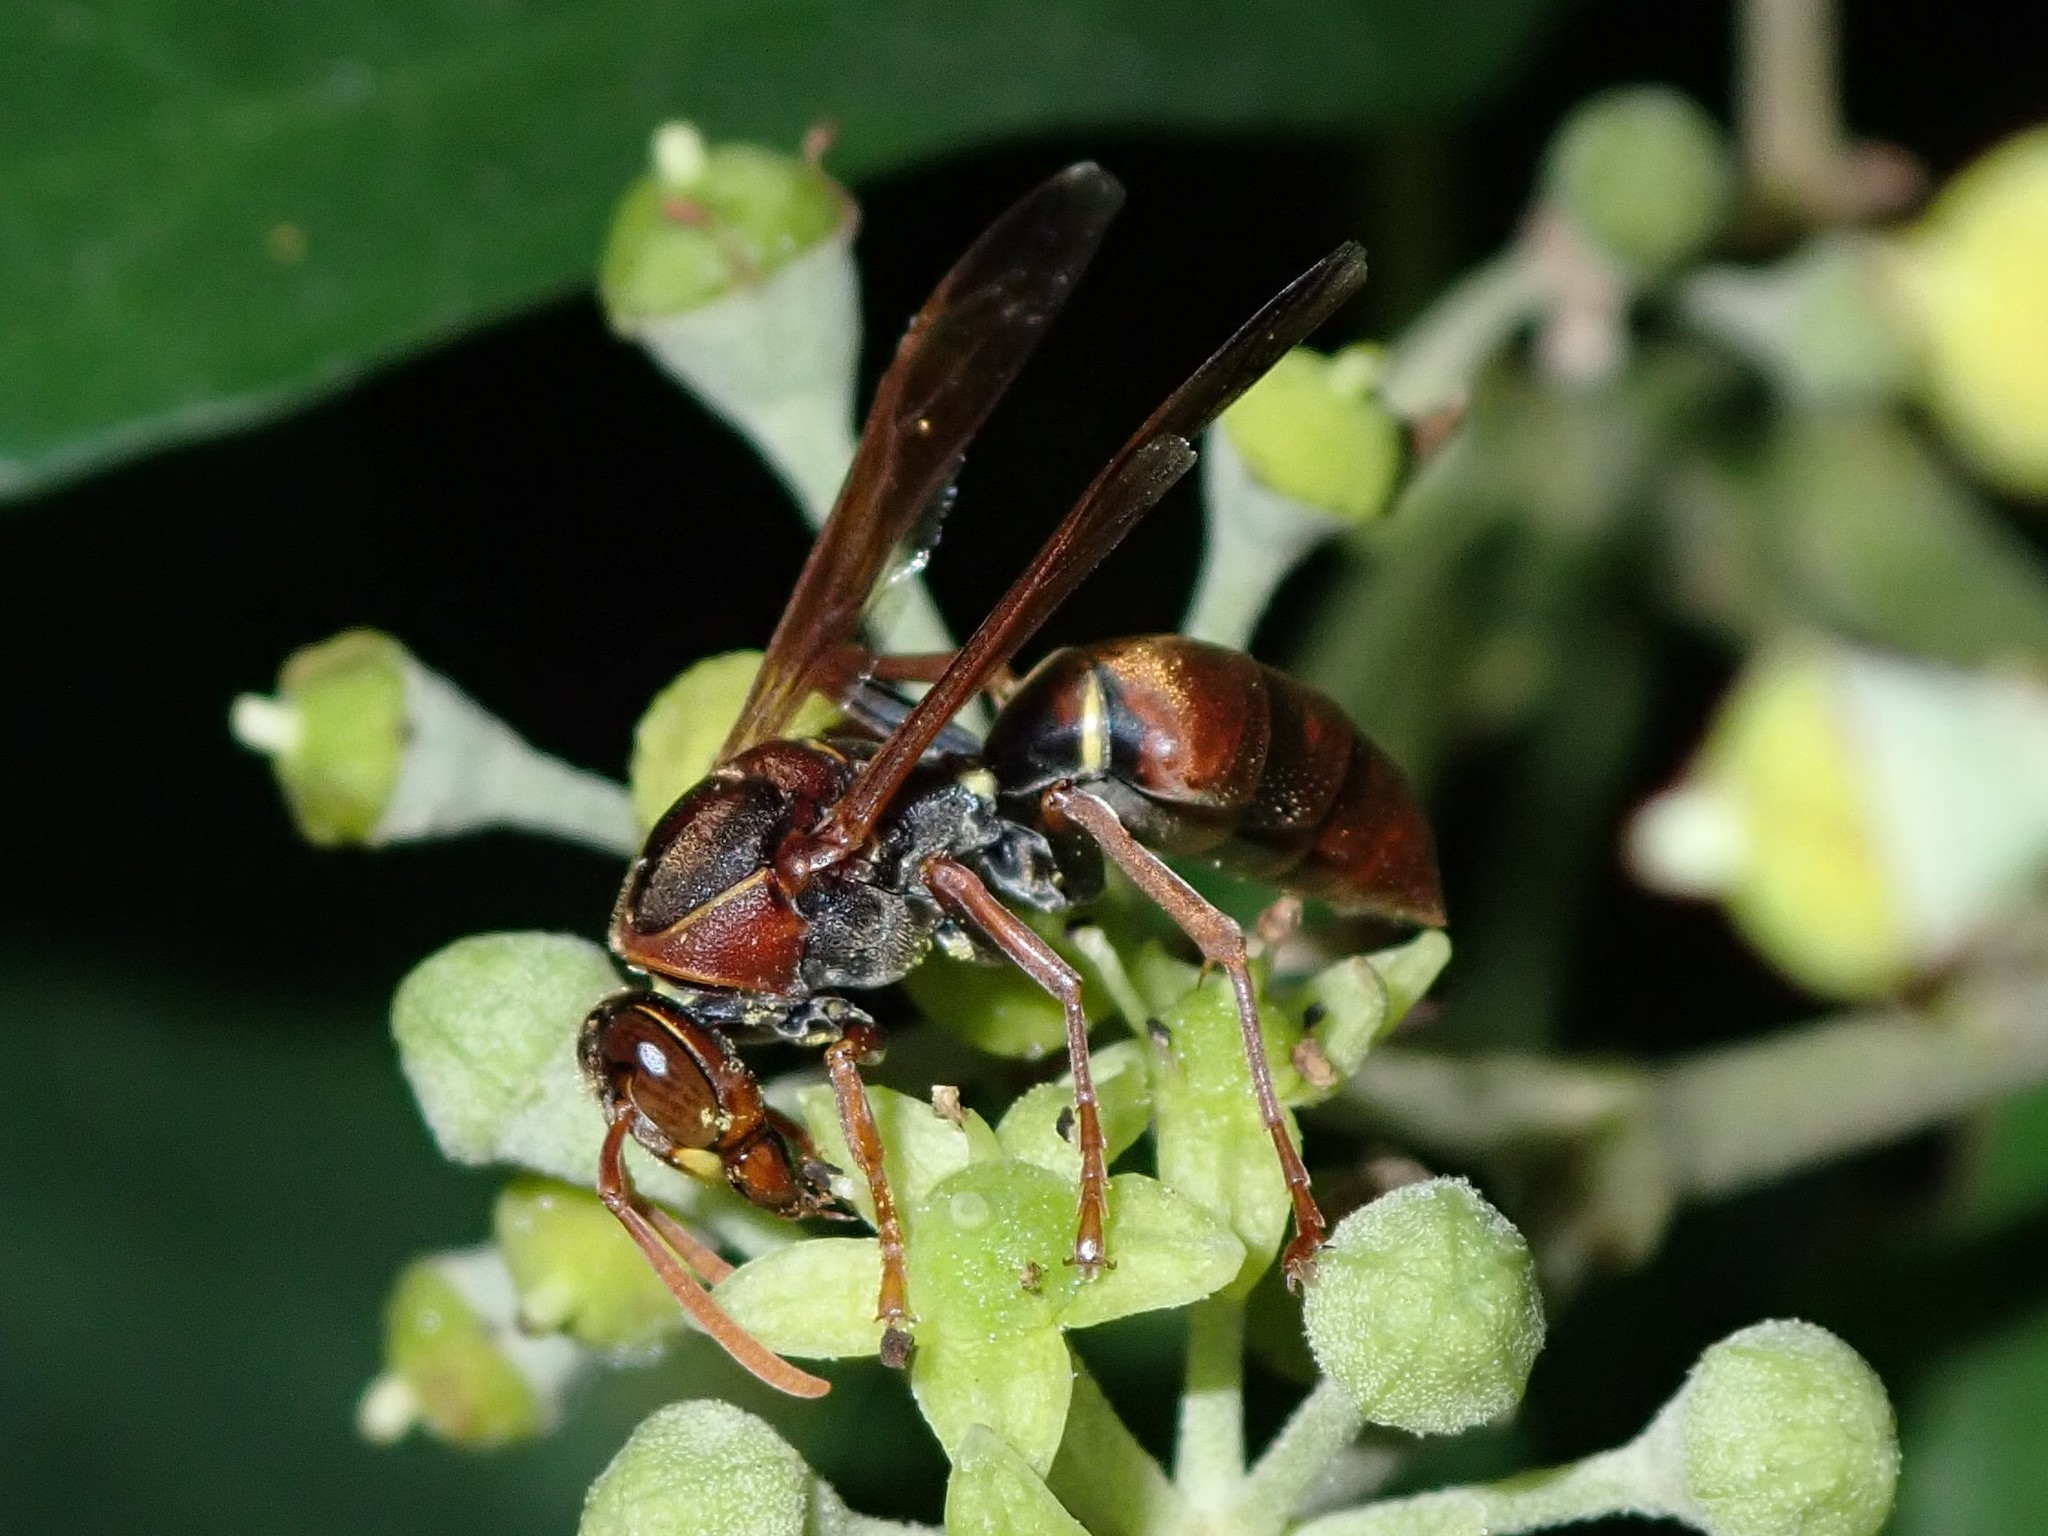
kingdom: Animalia
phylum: Arthropoda
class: Insecta
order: Hymenoptera
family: Eumenidae
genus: Polistes
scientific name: Polistes humilis
